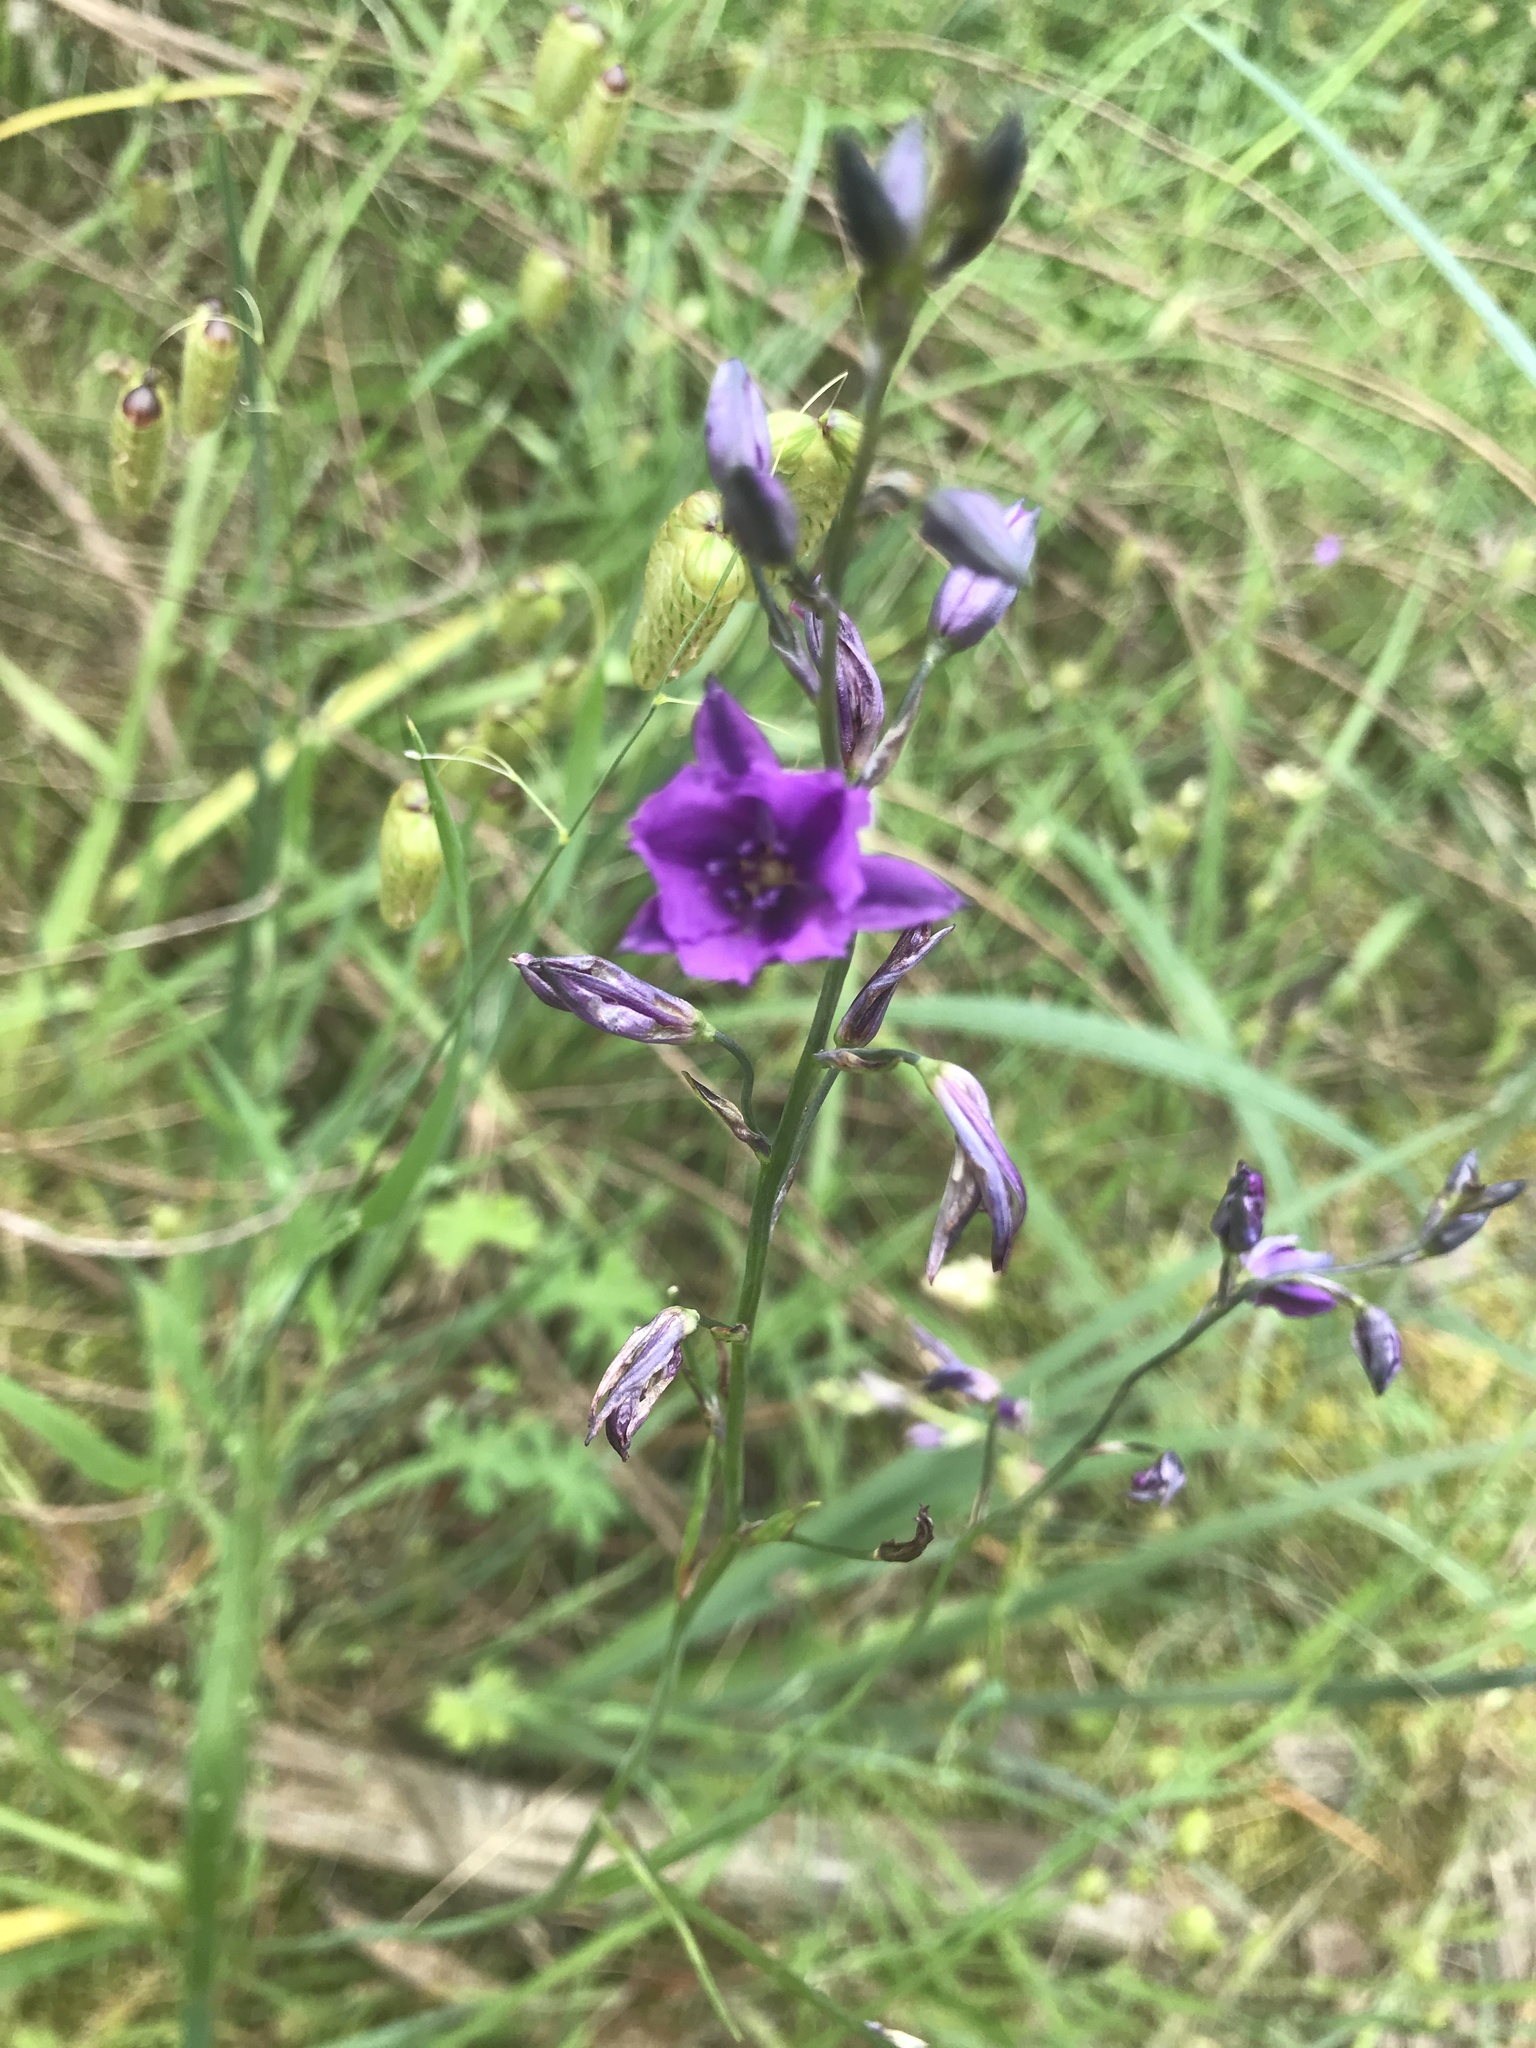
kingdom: Plantae
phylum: Tracheophyta
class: Liliopsida
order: Asparagales
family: Asparagaceae
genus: Arthropodium
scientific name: Arthropodium strictum
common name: Chocolate-lily
